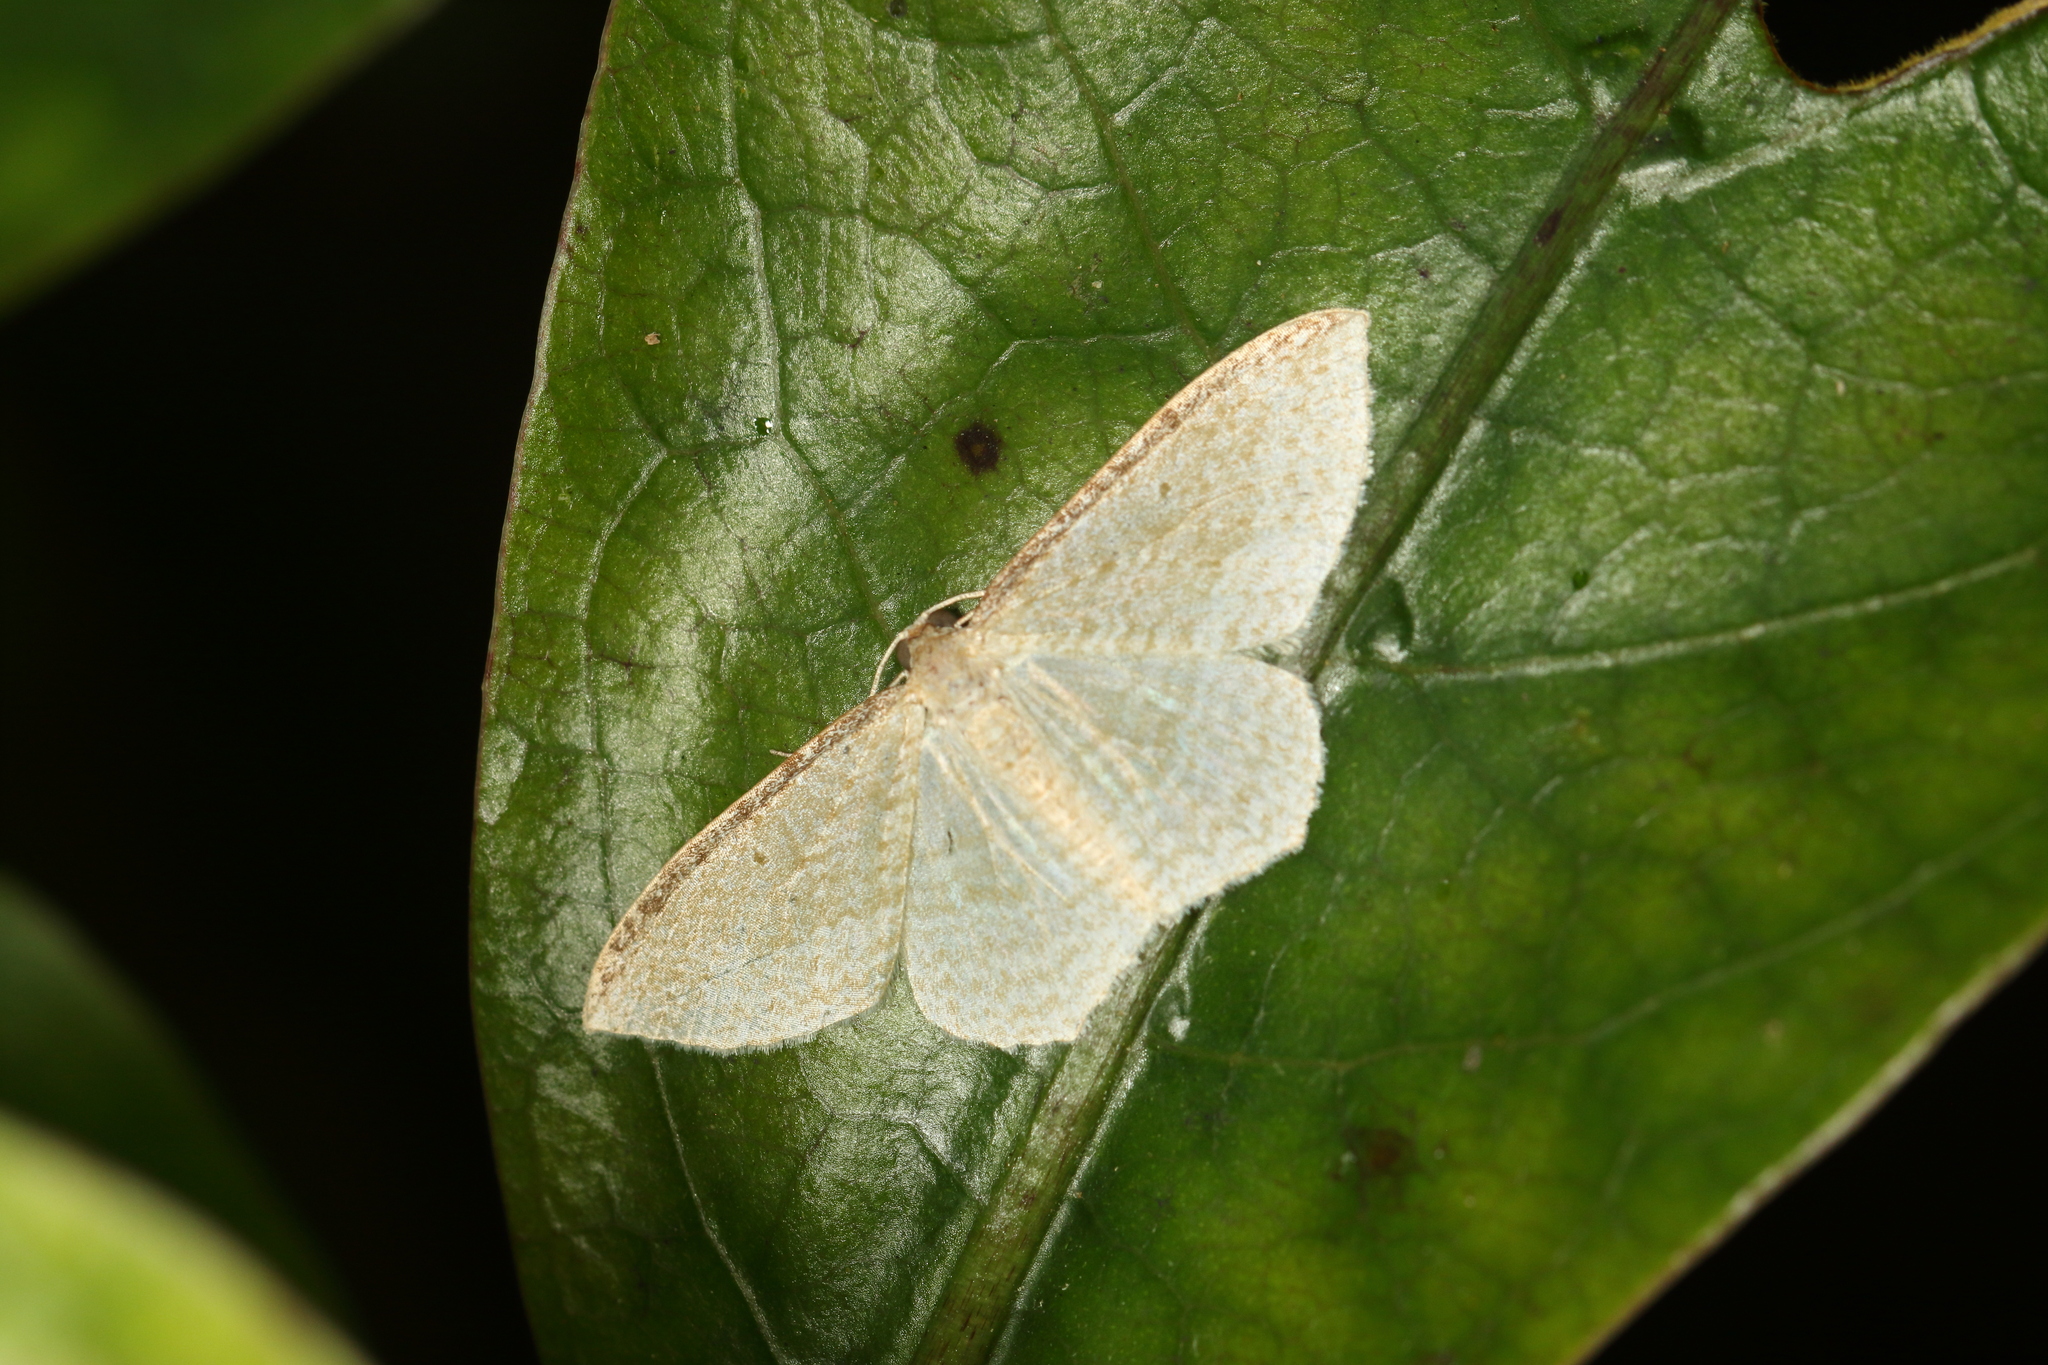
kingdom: Animalia
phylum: Arthropoda
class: Insecta
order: Lepidoptera
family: Geometridae
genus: Poecilasthena
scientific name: Poecilasthena pulchraria
